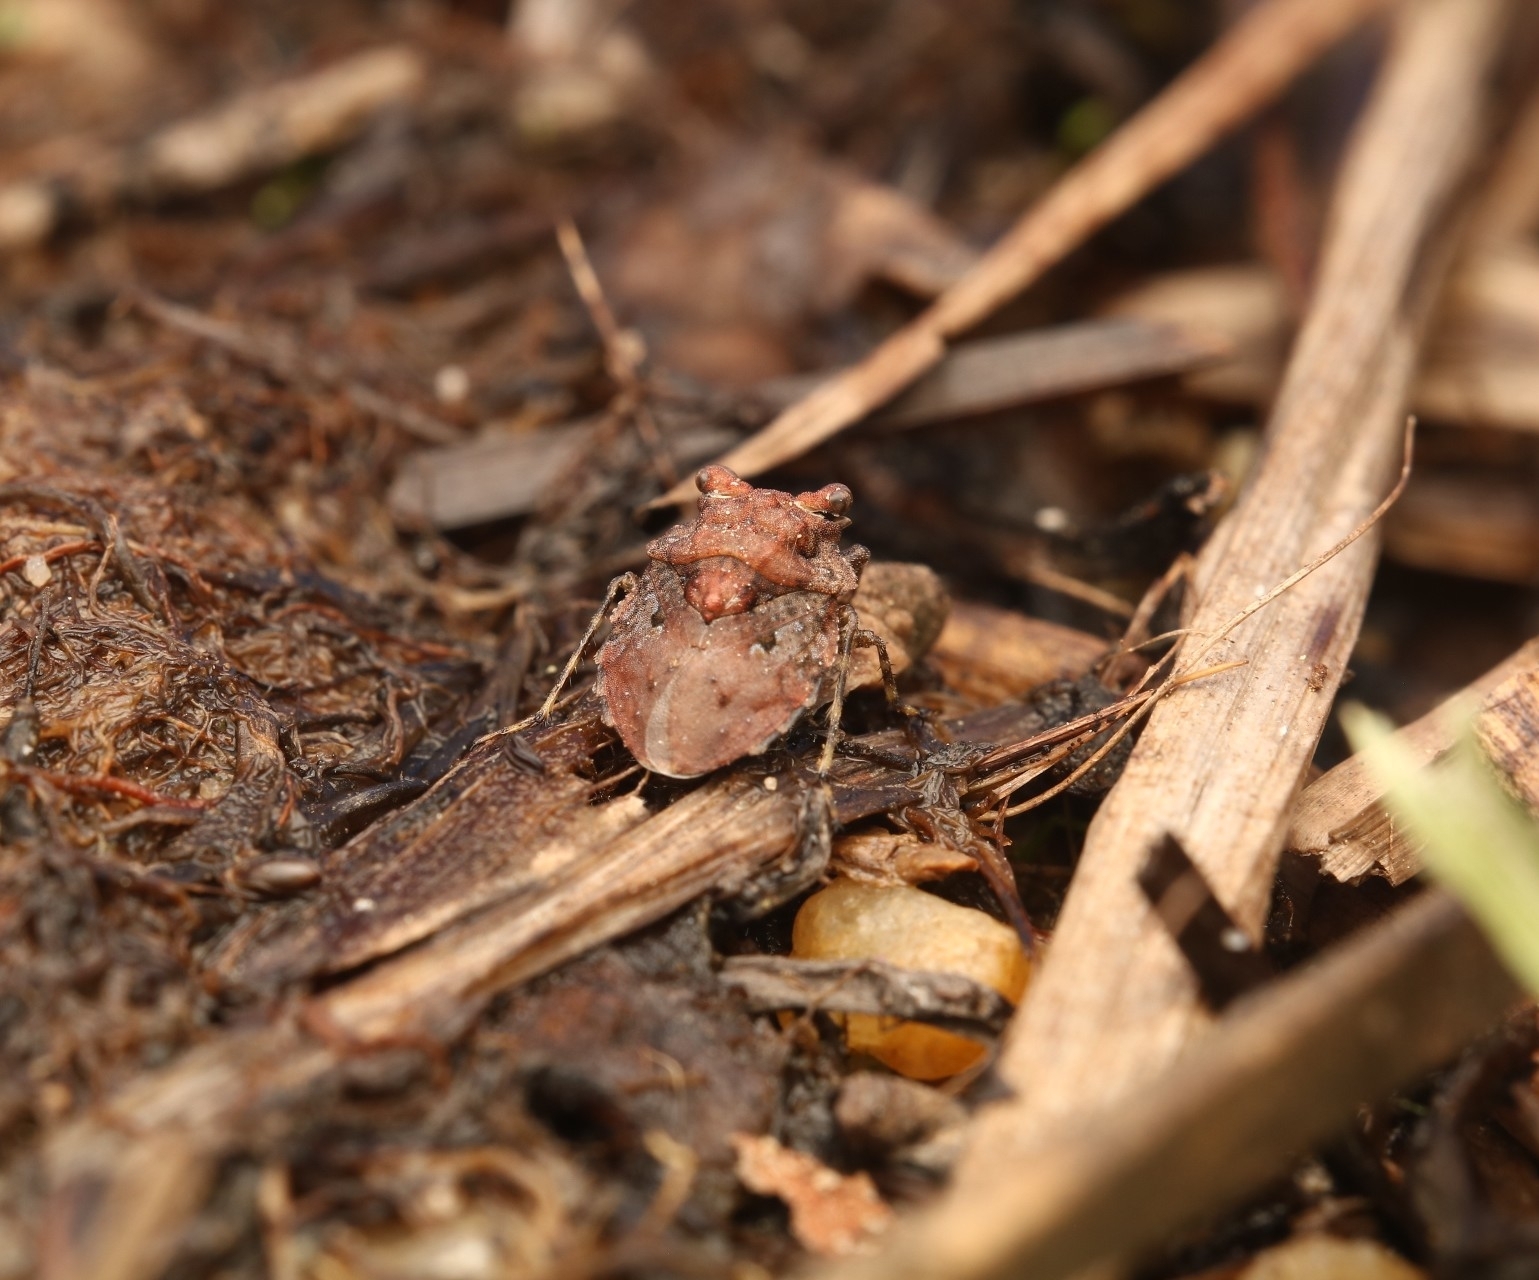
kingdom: Animalia
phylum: Arthropoda
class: Insecta
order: Hemiptera
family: Gelastocoridae
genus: Gelastocoris
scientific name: Gelastocoris oculatus
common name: Toad bug
